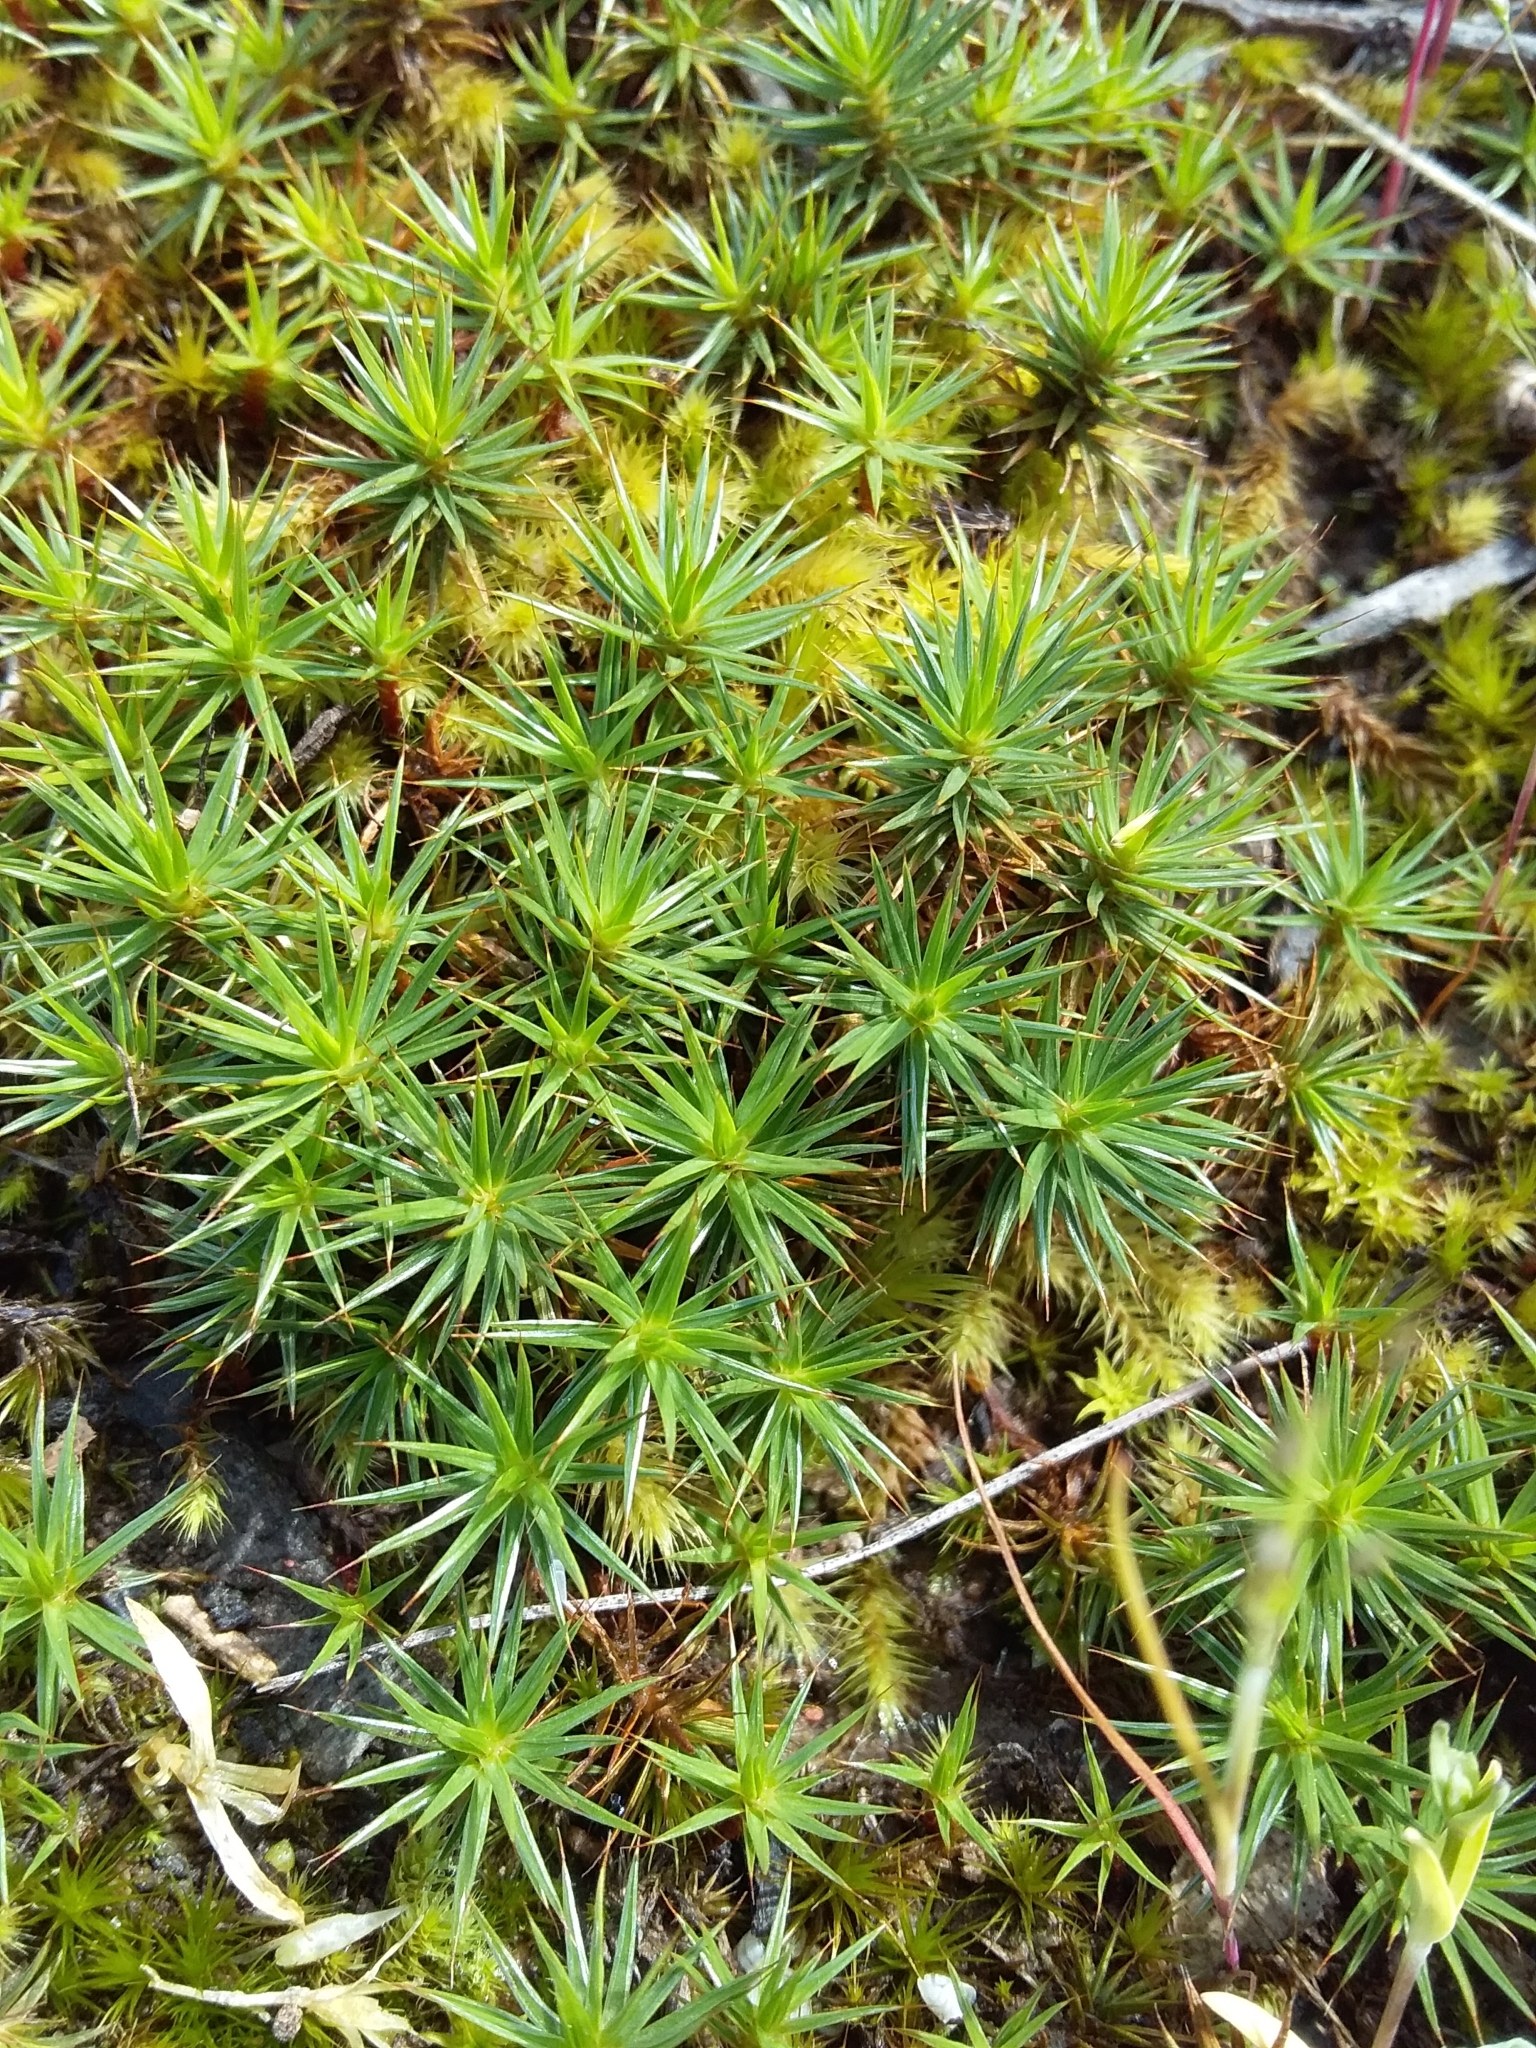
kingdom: Plantae
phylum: Bryophyta
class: Polytrichopsida
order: Polytrichales
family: Polytrichaceae
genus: Polytrichum
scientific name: Polytrichum juniperinum
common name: Juniper haircap moss
